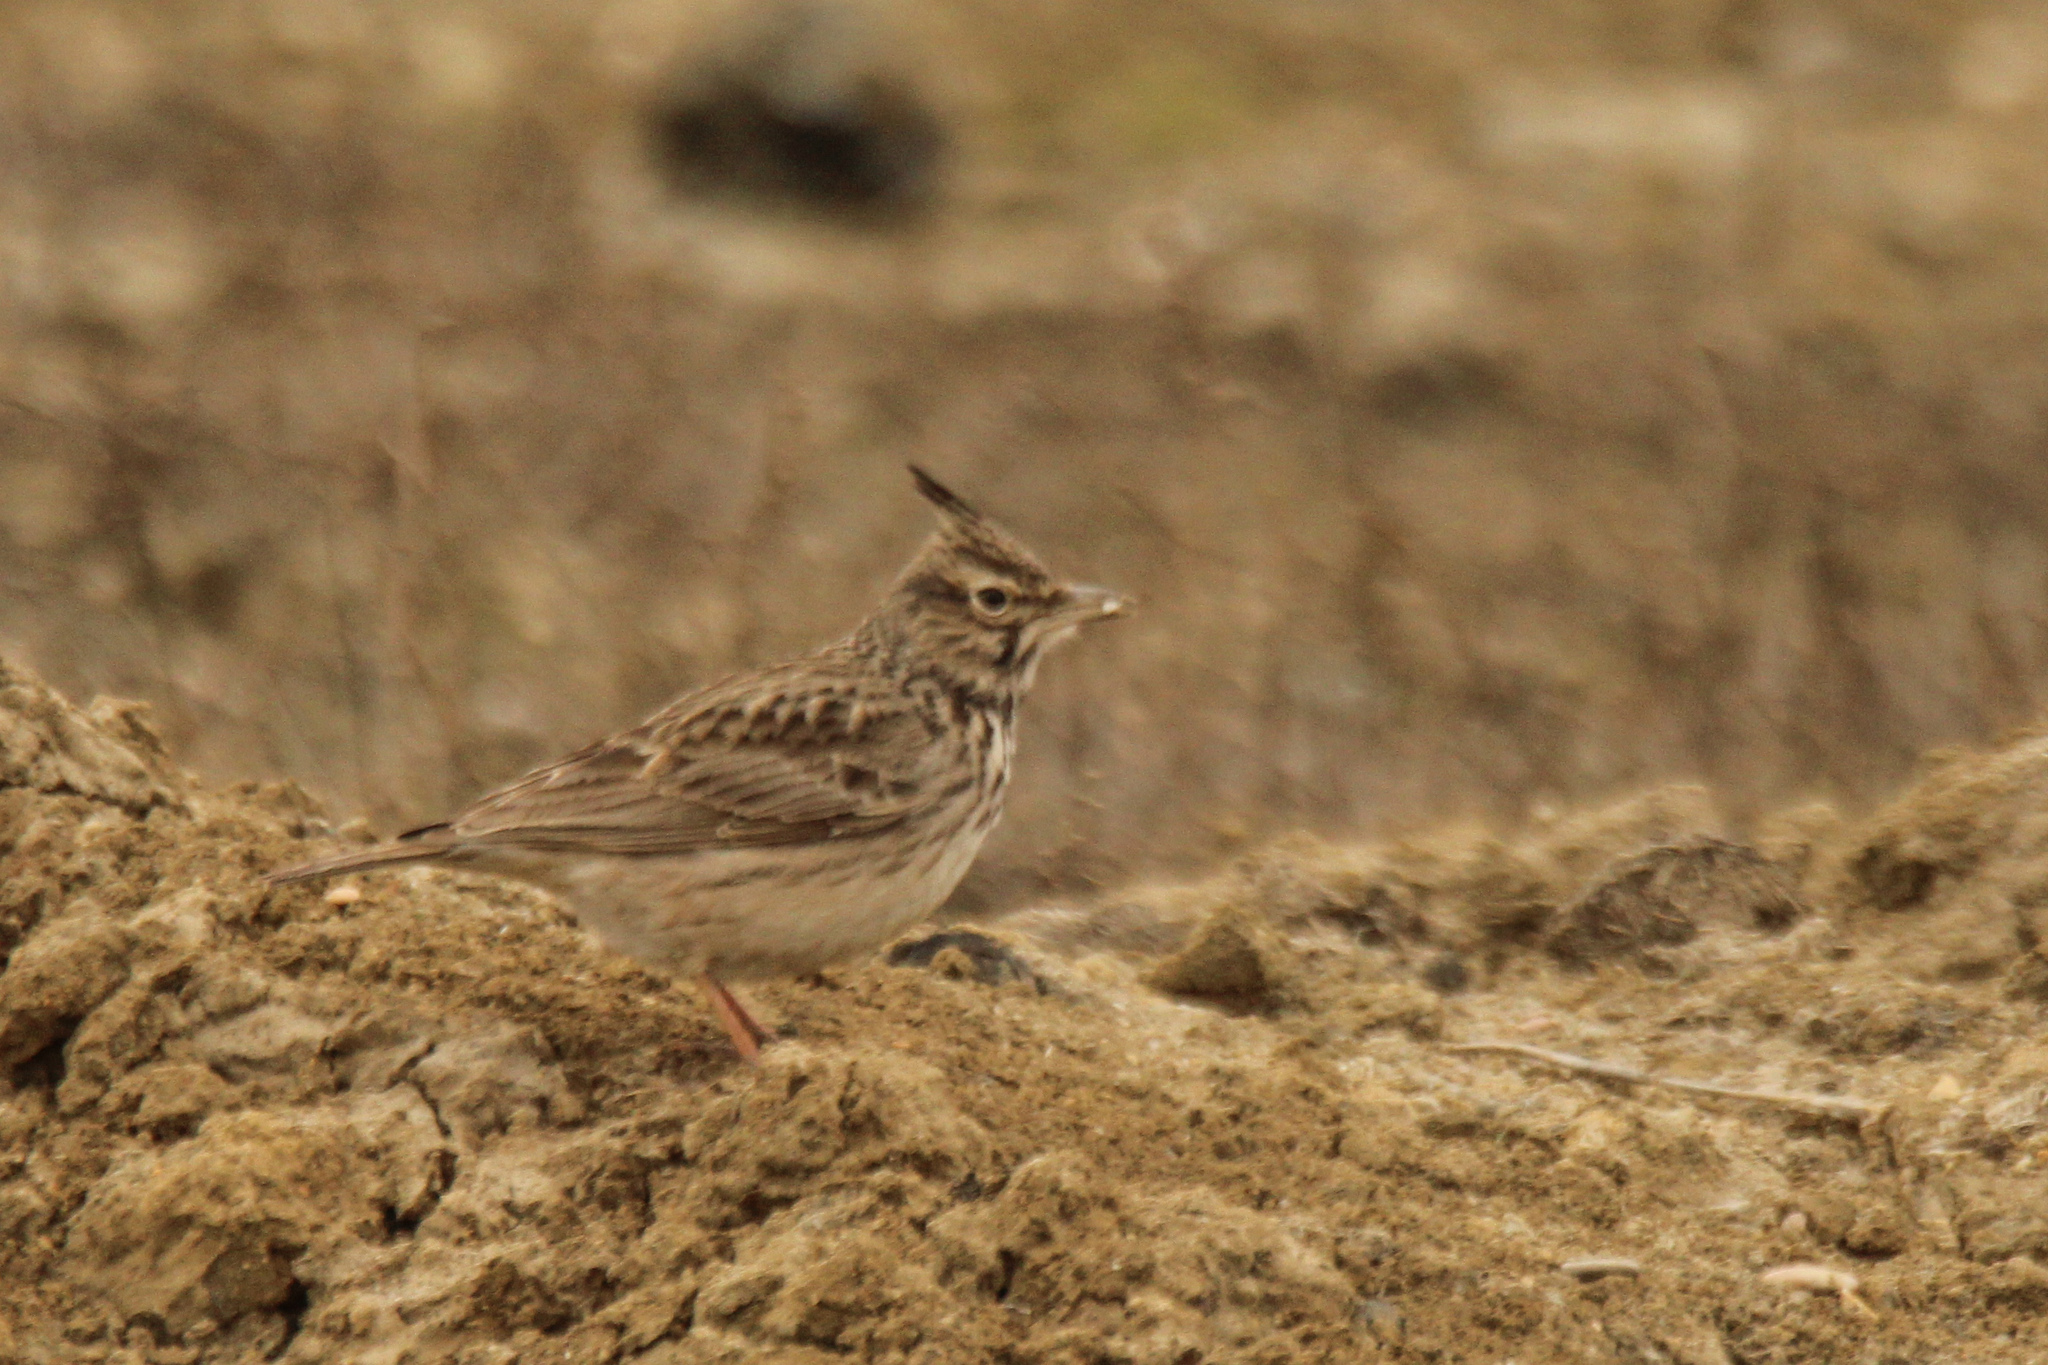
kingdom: Animalia
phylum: Chordata
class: Aves
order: Passeriformes
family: Alaudidae
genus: Galerida
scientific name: Galerida cristata
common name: Crested lark
